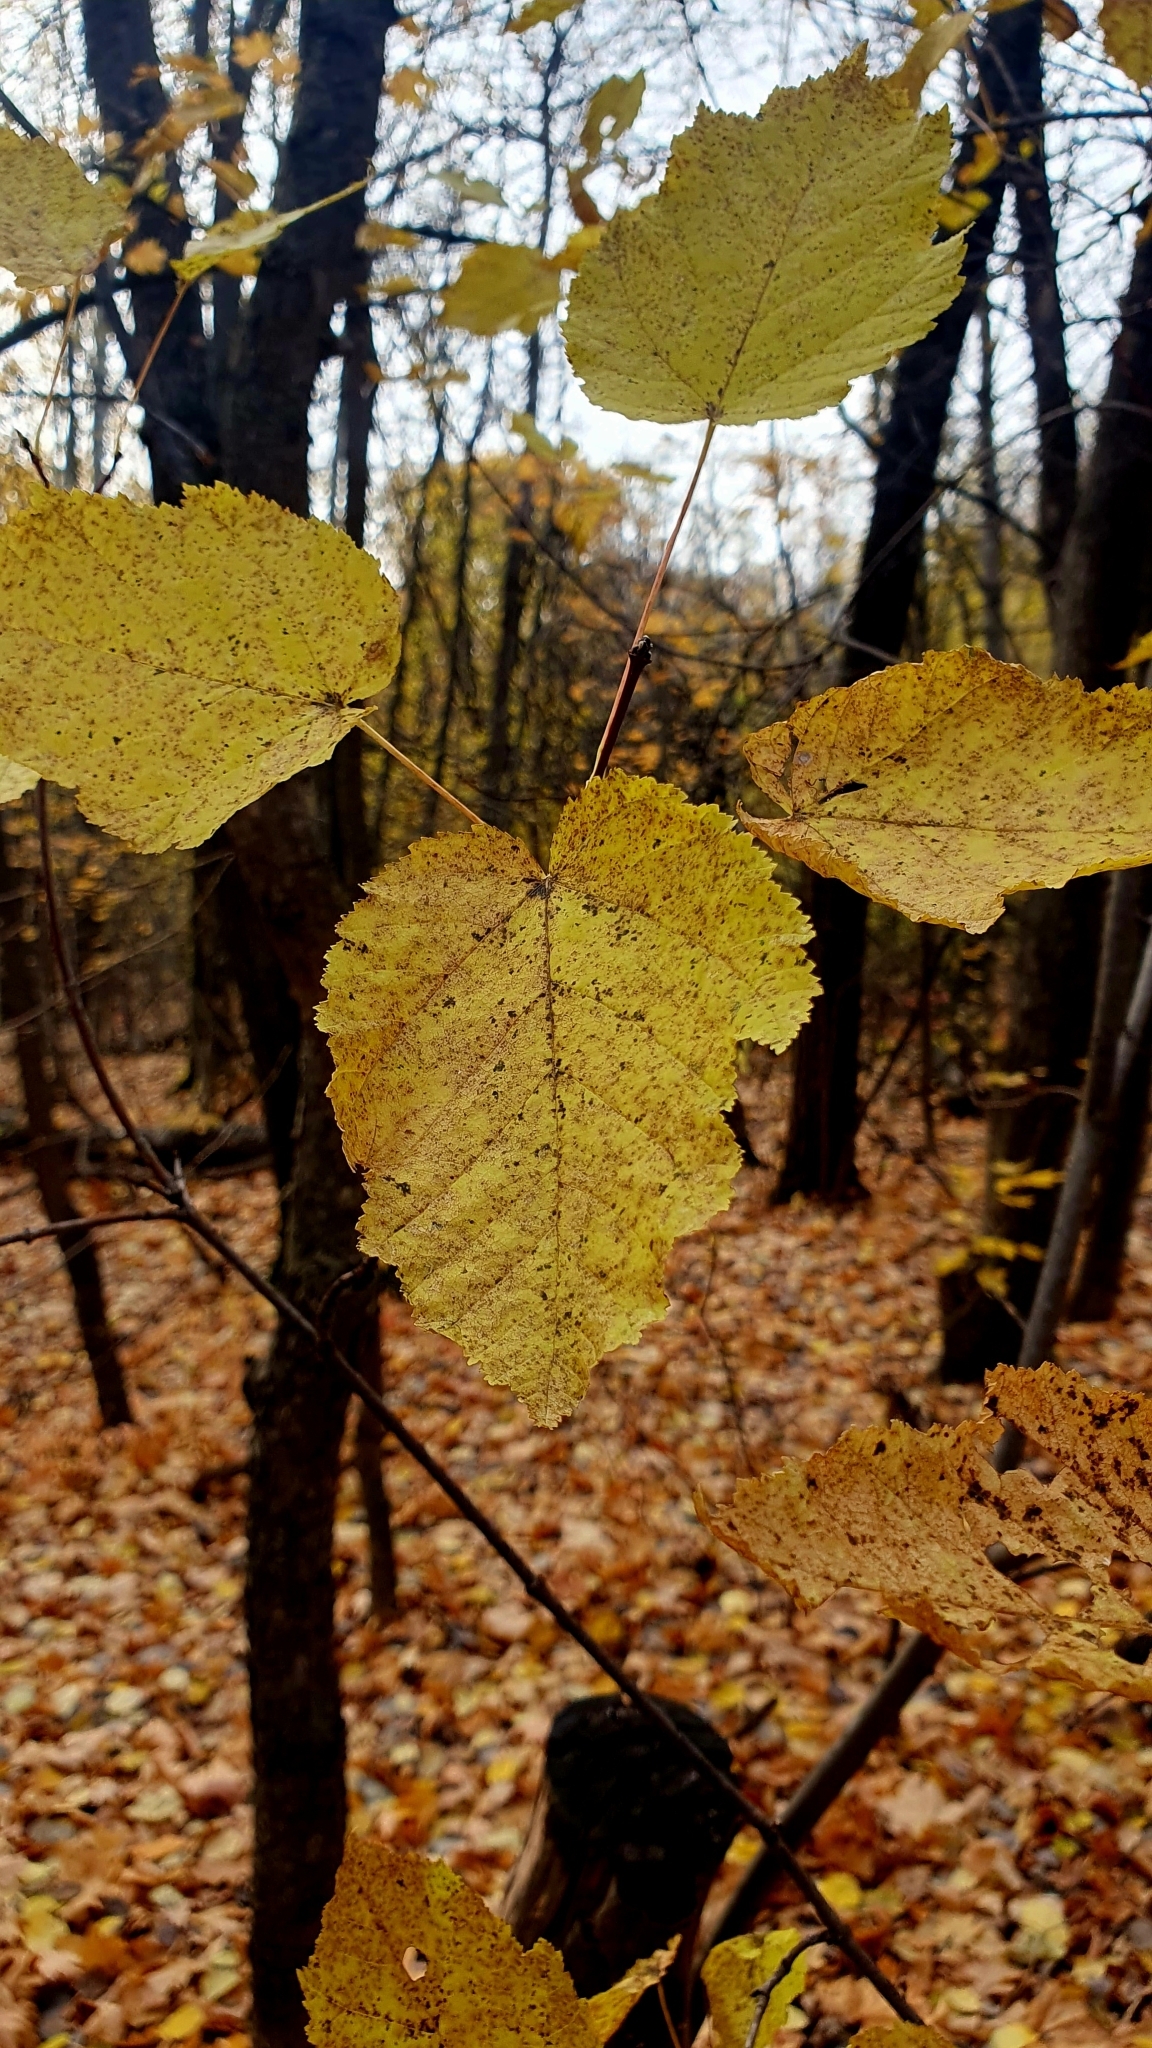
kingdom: Plantae
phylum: Tracheophyta
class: Magnoliopsida
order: Sapindales
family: Sapindaceae
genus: Acer
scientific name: Acer tataricum
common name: Tartar maple
